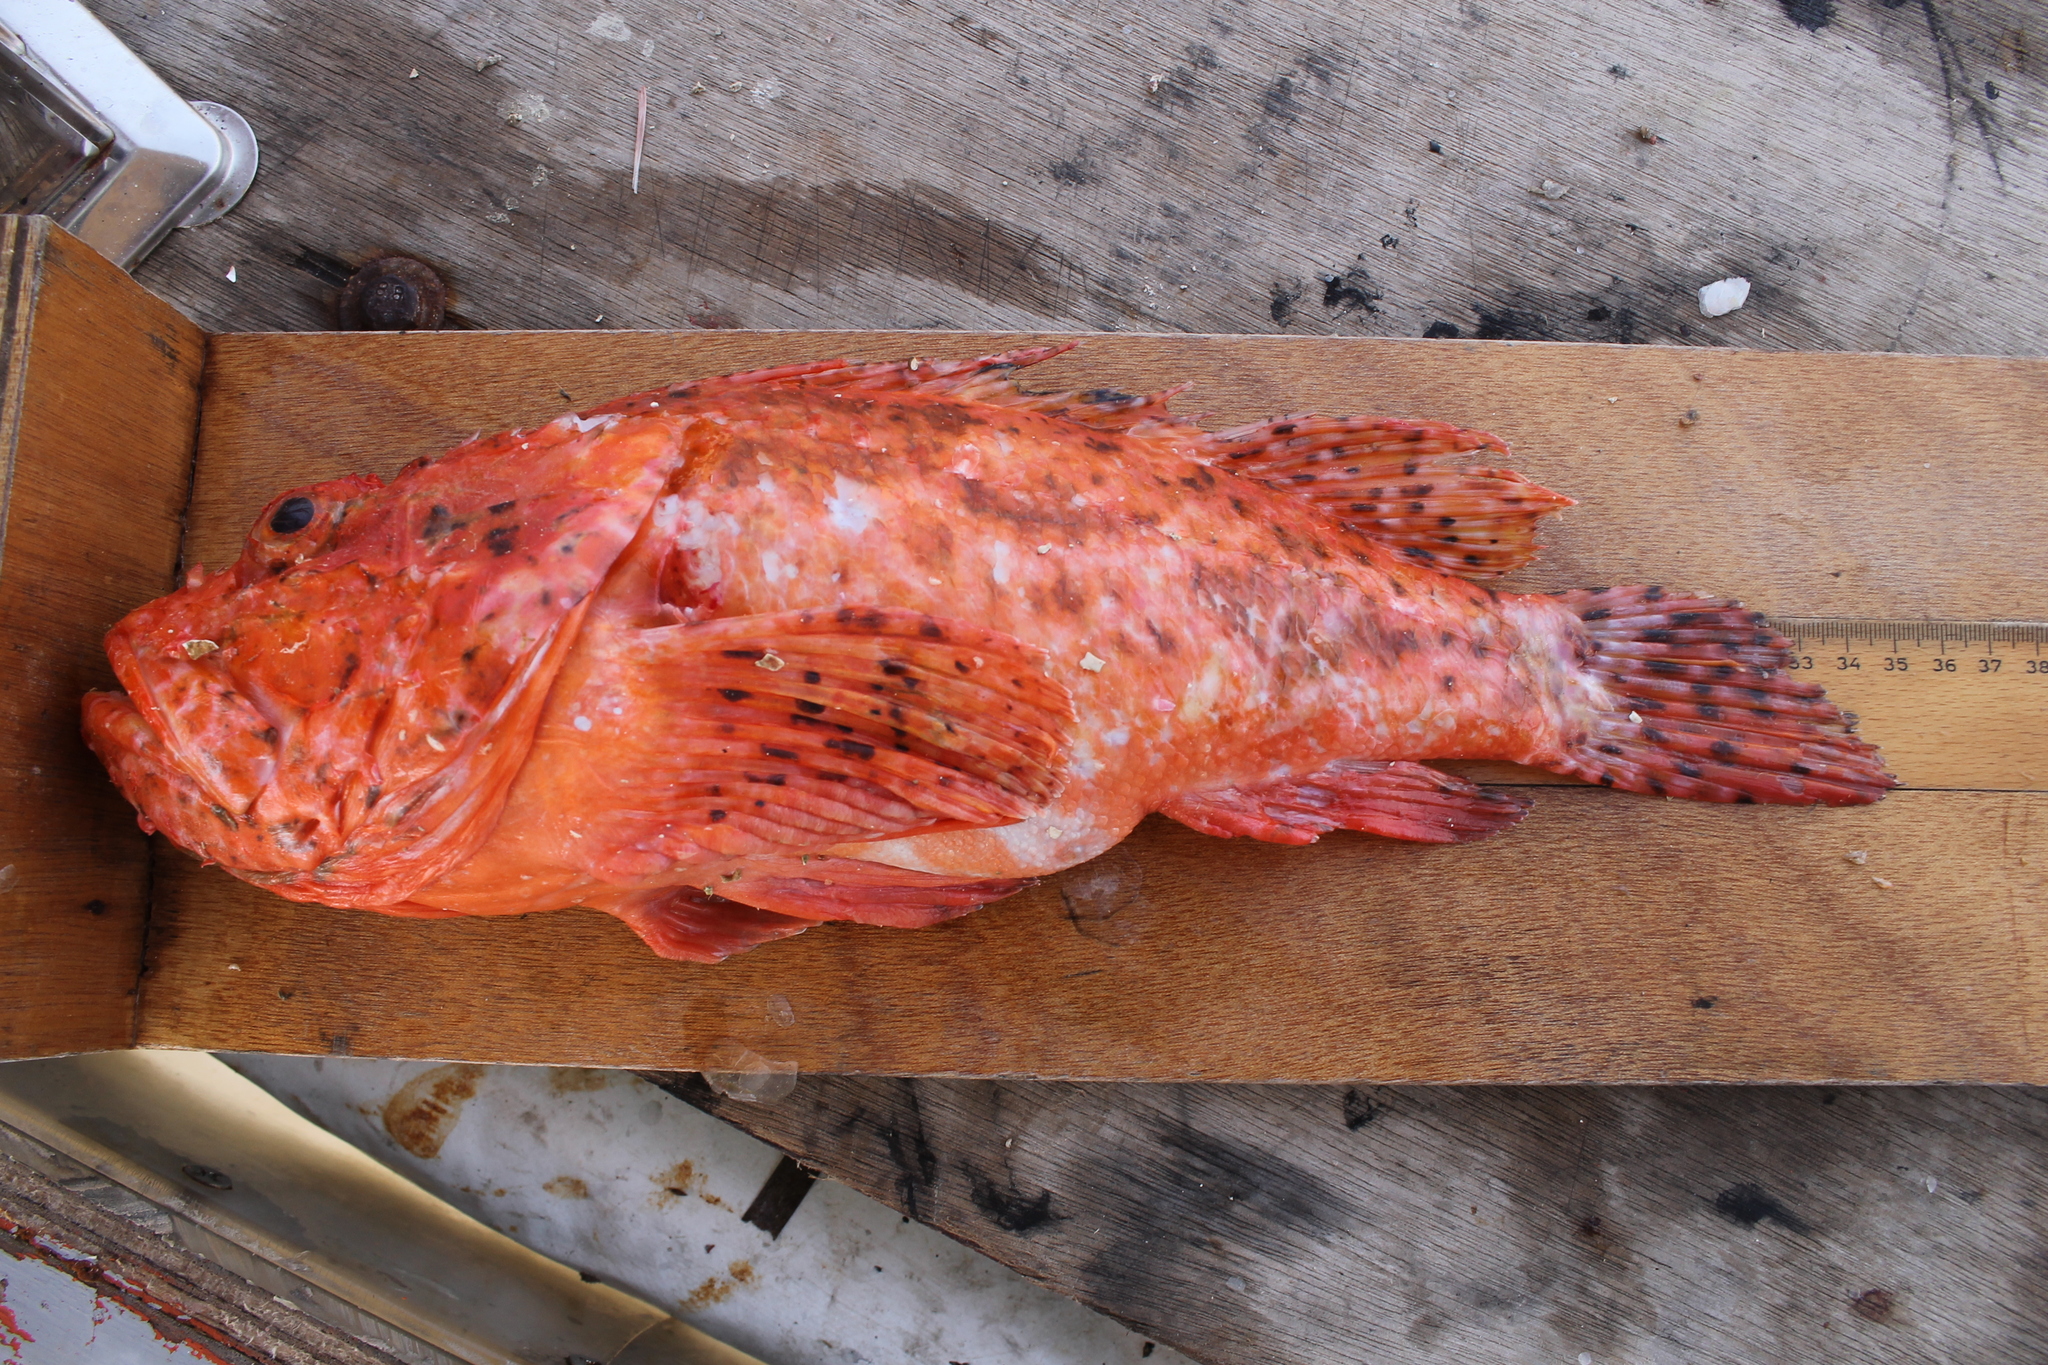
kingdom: Animalia
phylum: Chordata
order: Scorpaeniformes
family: Scorpaenidae
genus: Scorpaena
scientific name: Scorpaena scrofa
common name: Red scorpionfish
